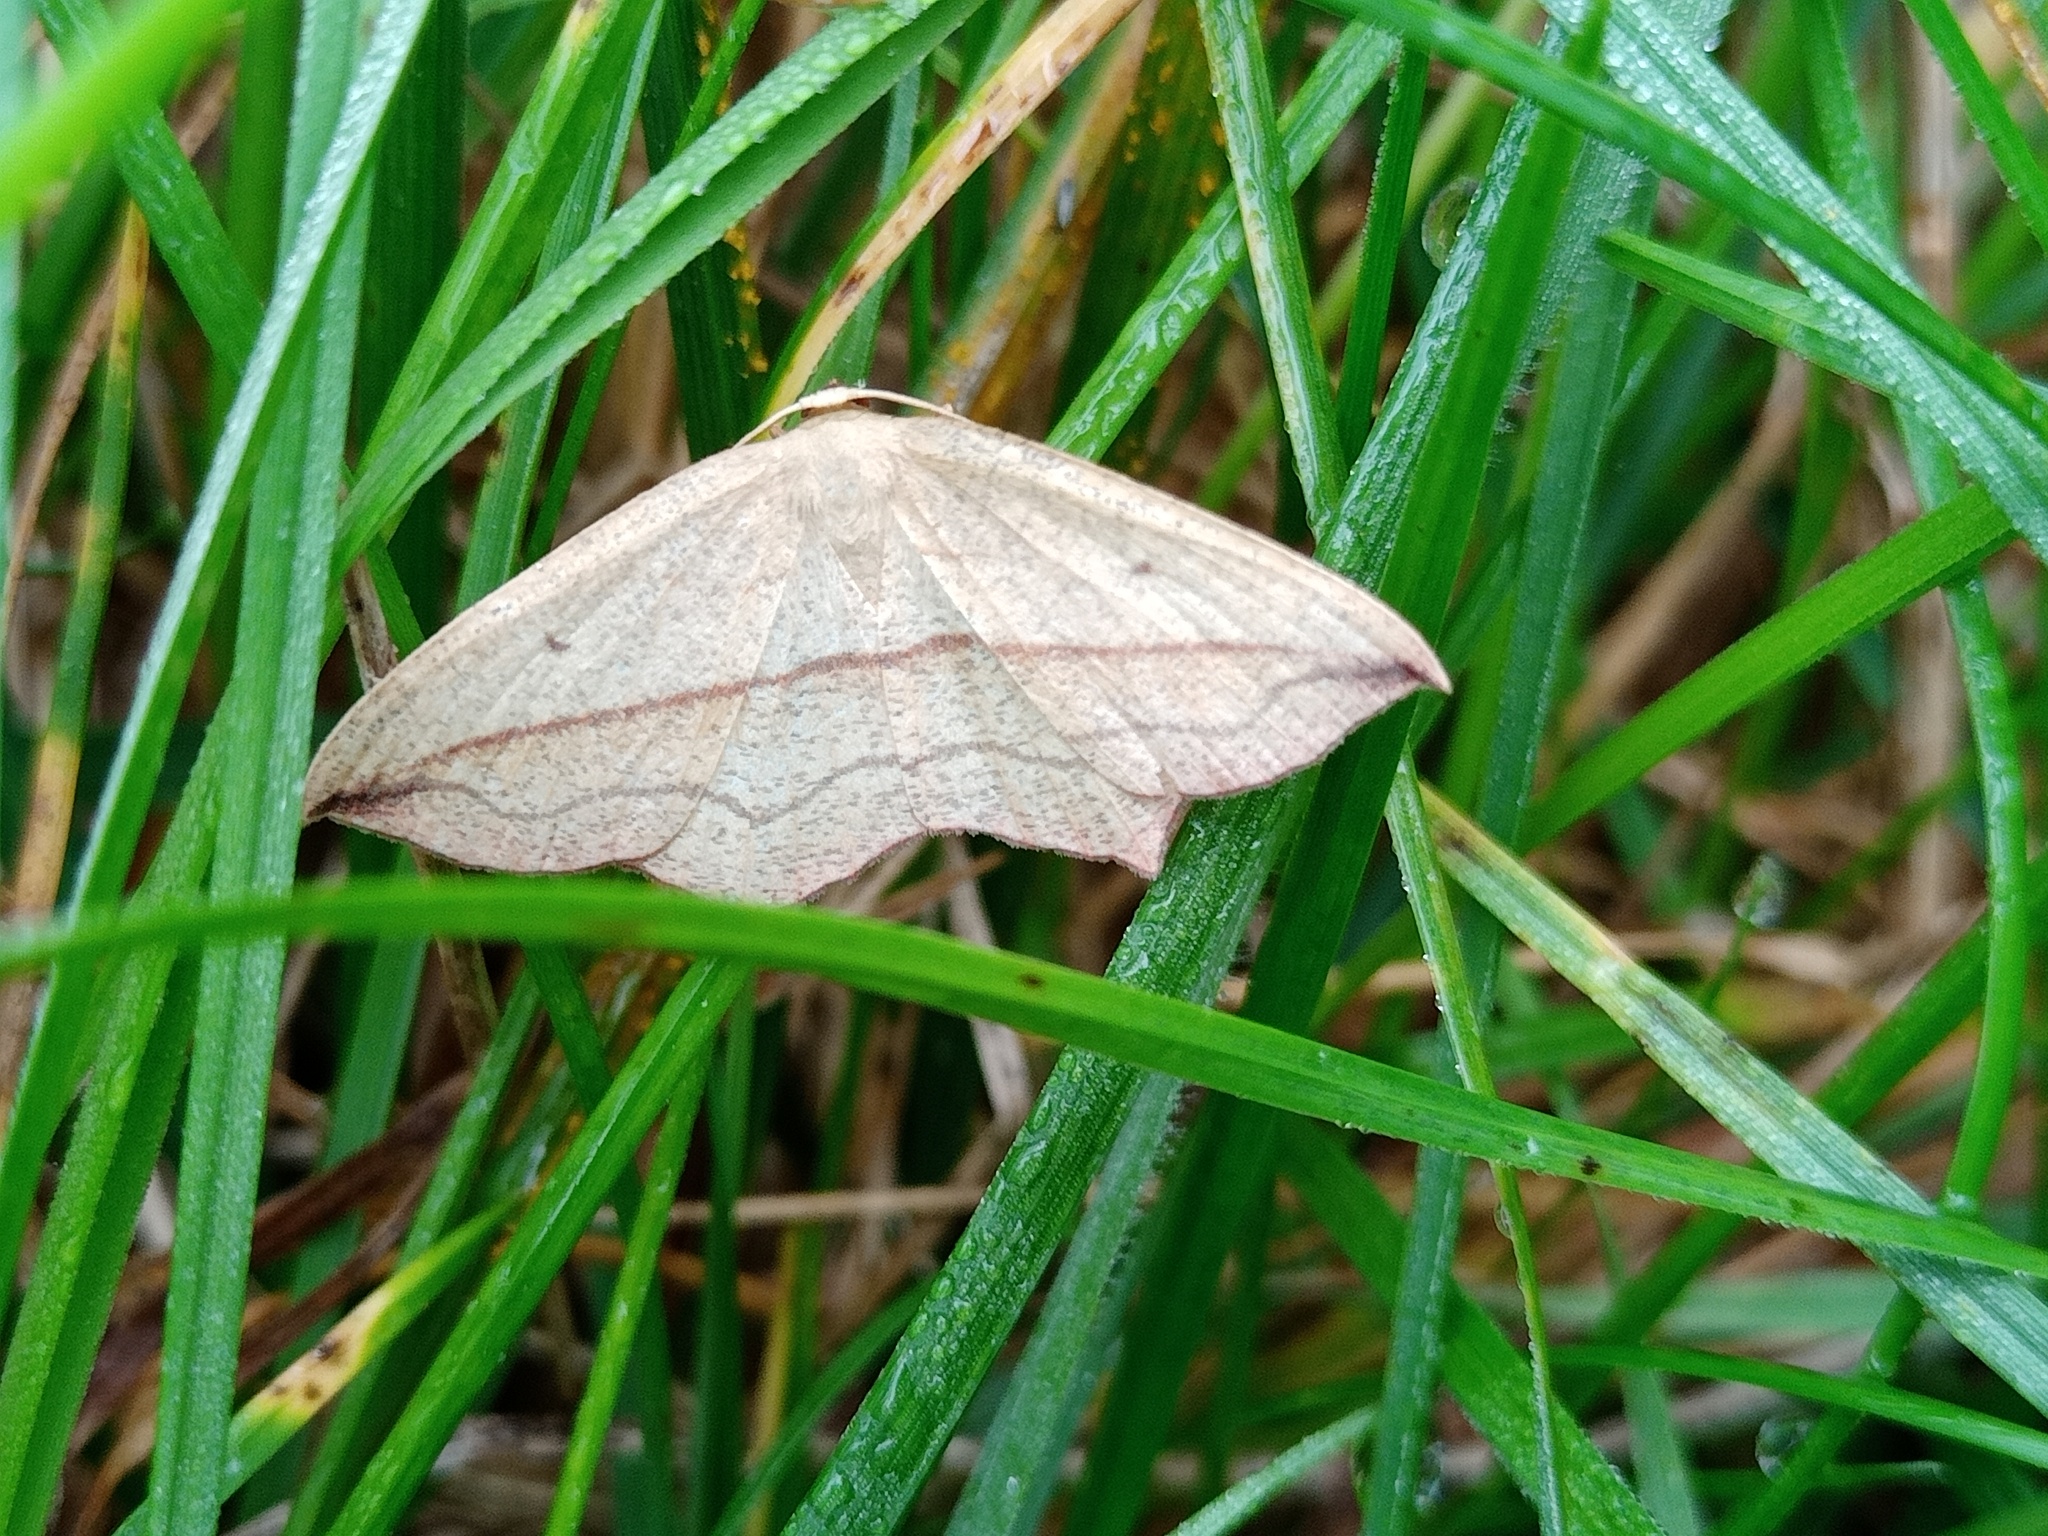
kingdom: Animalia
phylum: Arthropoda
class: Insecta
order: Lepidoptera
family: Geometridae
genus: Timandra
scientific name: Timandra comae
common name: Blood-vein
